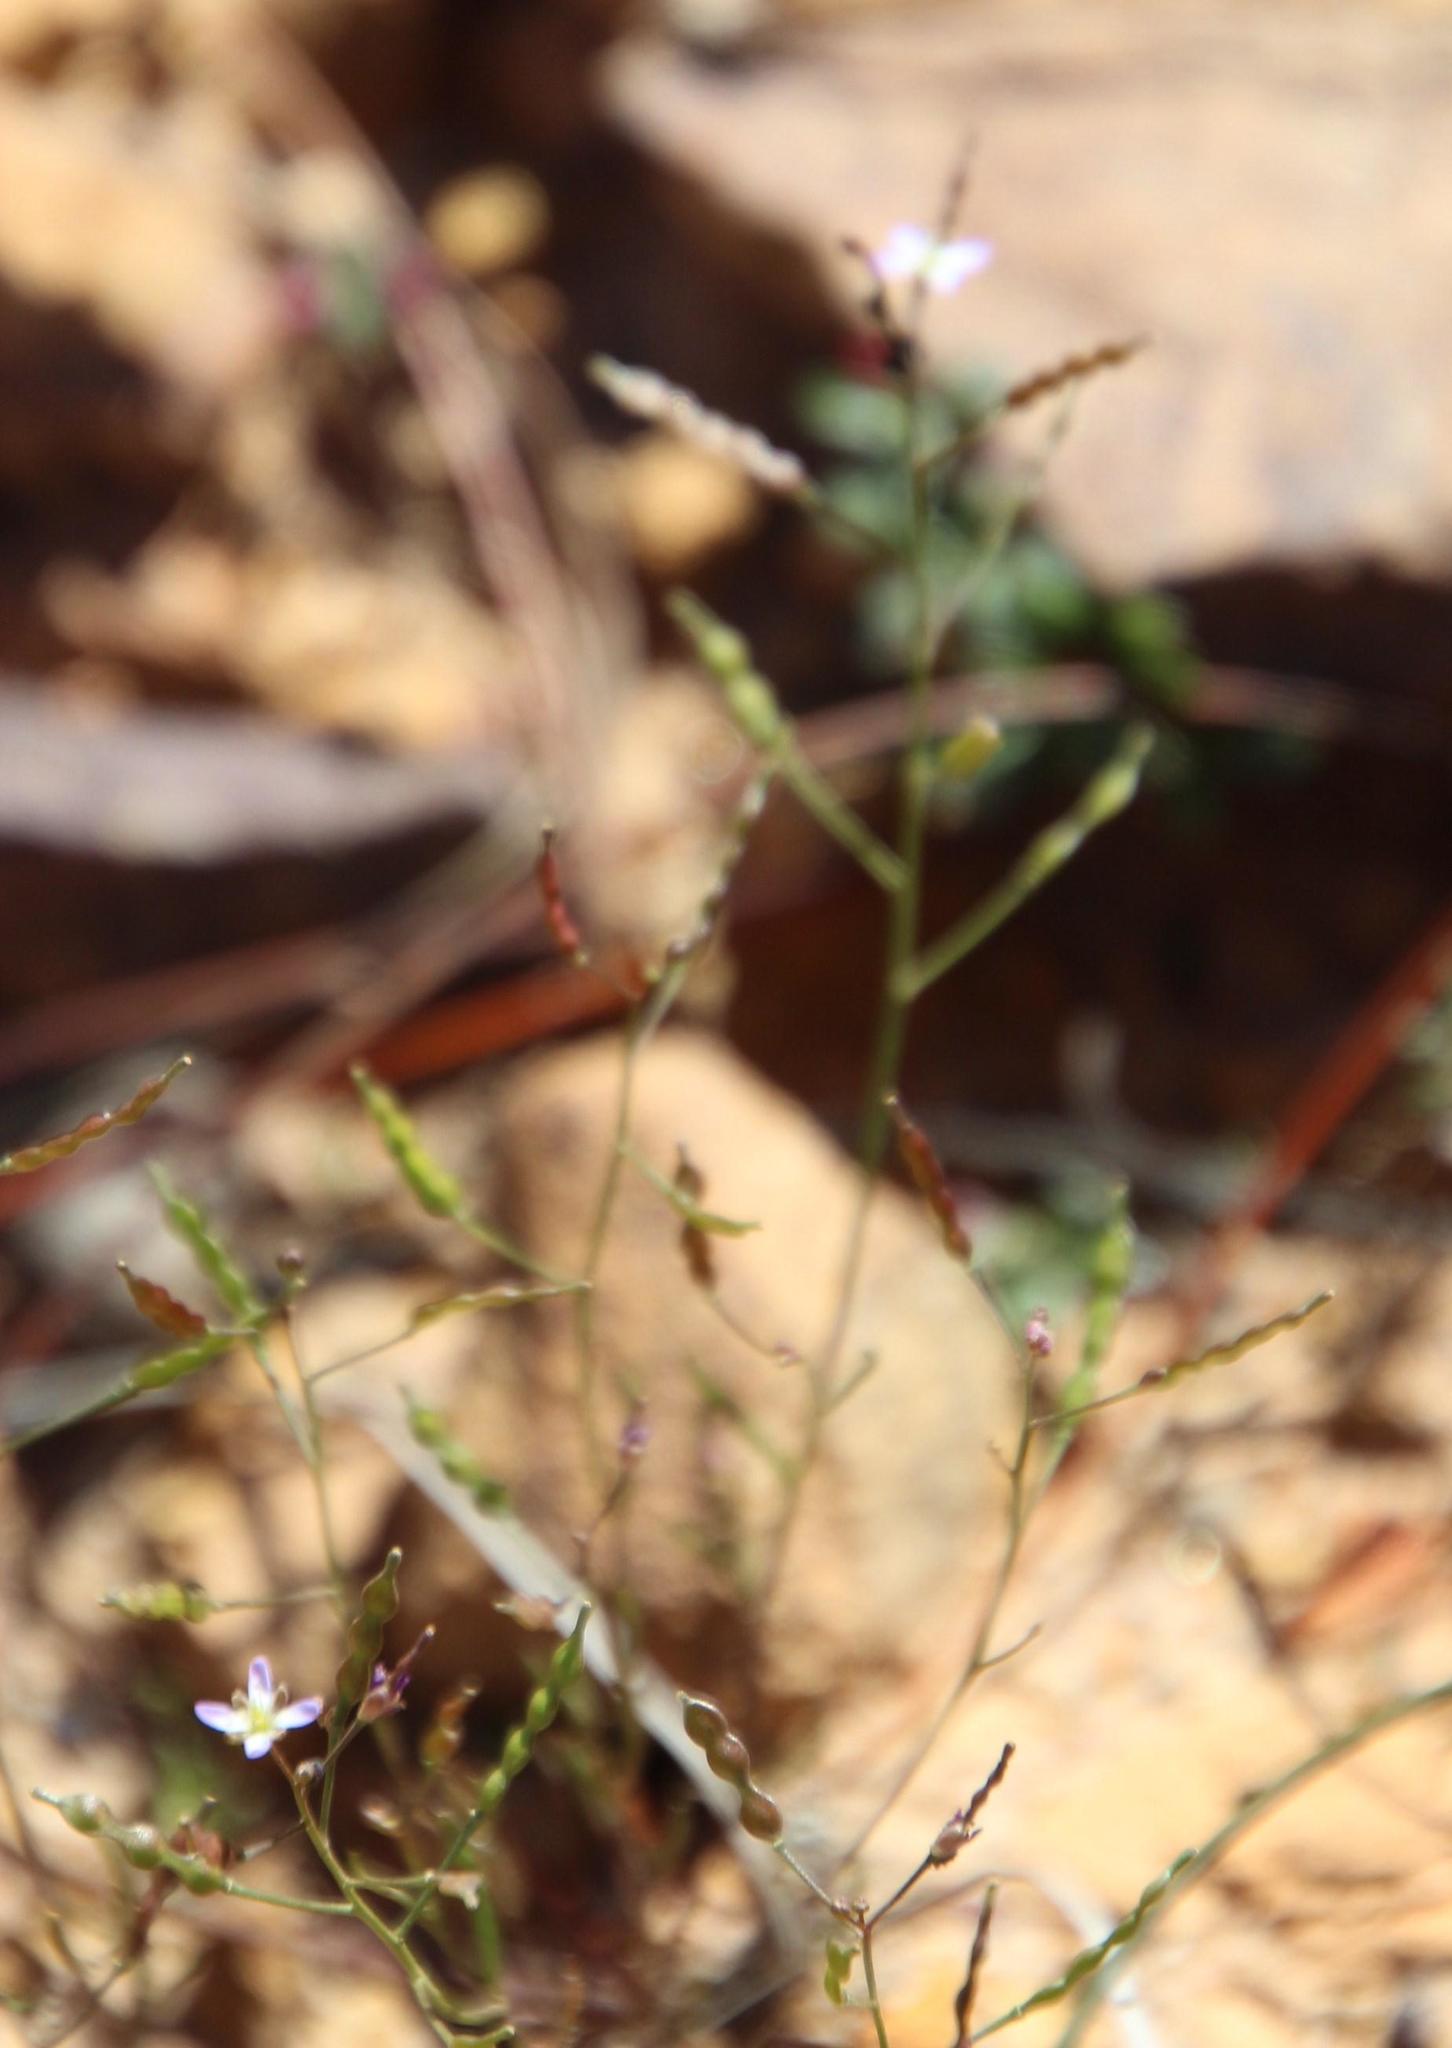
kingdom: Plantae
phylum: Tracheophyta
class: Magnoliopsida
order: Brassicales
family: Brassicaceae
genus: Heliophila
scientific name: Heliophila pinnata
